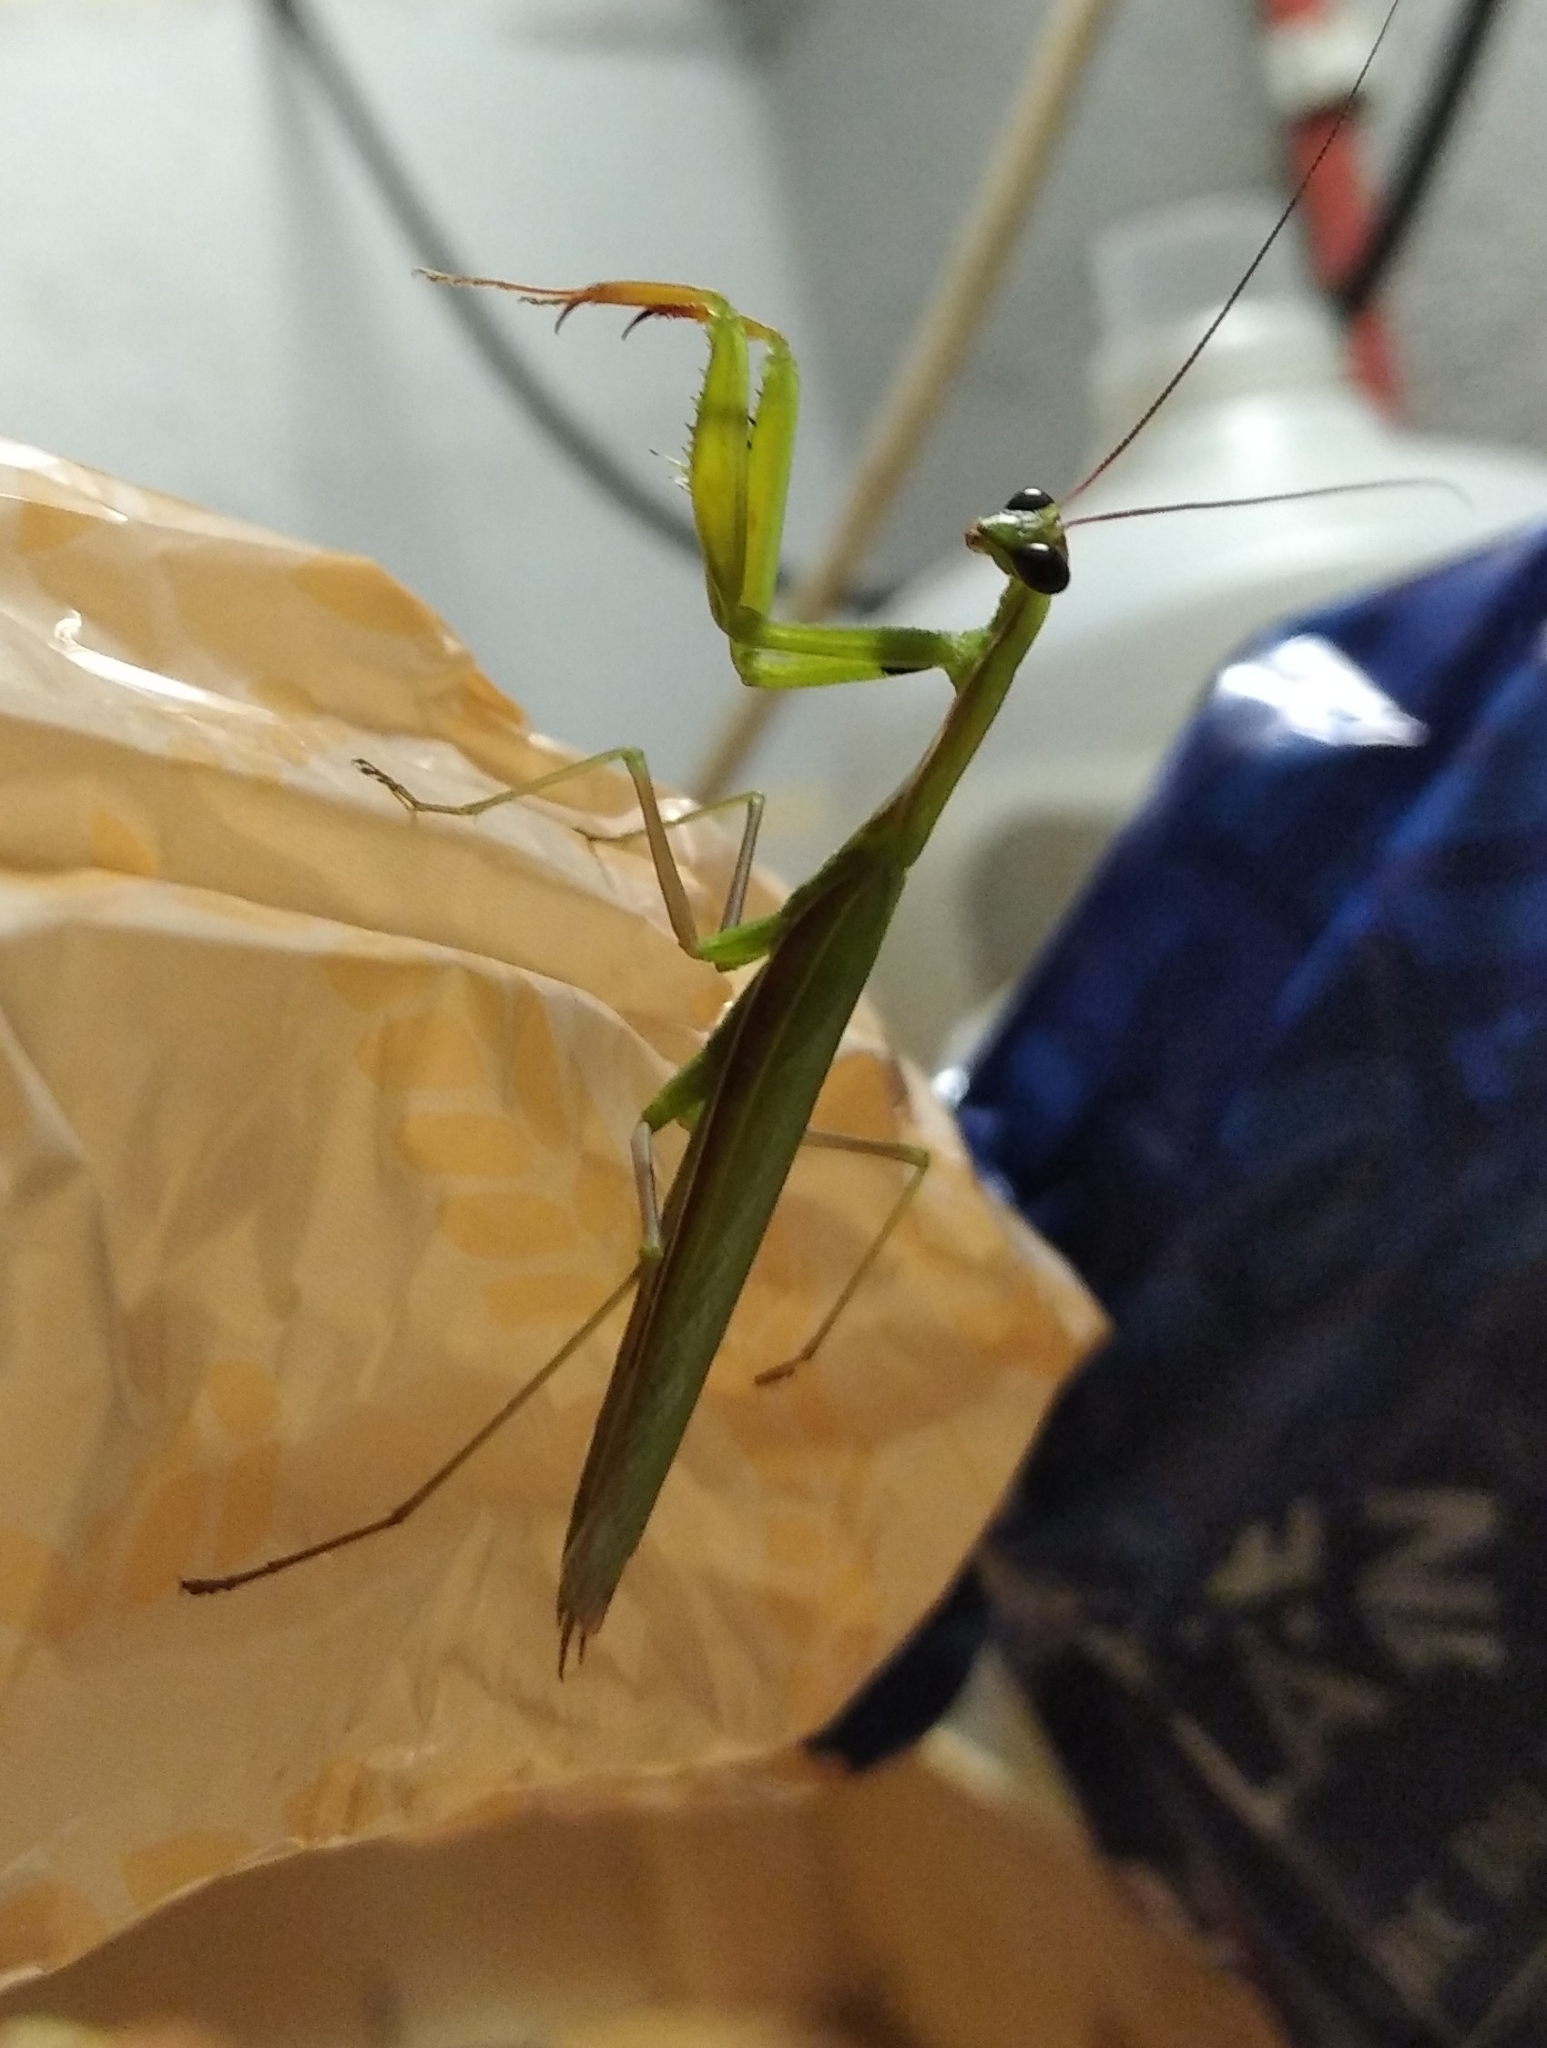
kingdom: Animalia
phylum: Arthropoda
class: Insecta
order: Mantodea
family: Mantidae
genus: Mantis
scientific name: Mantis religiosa
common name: Praying mantis
